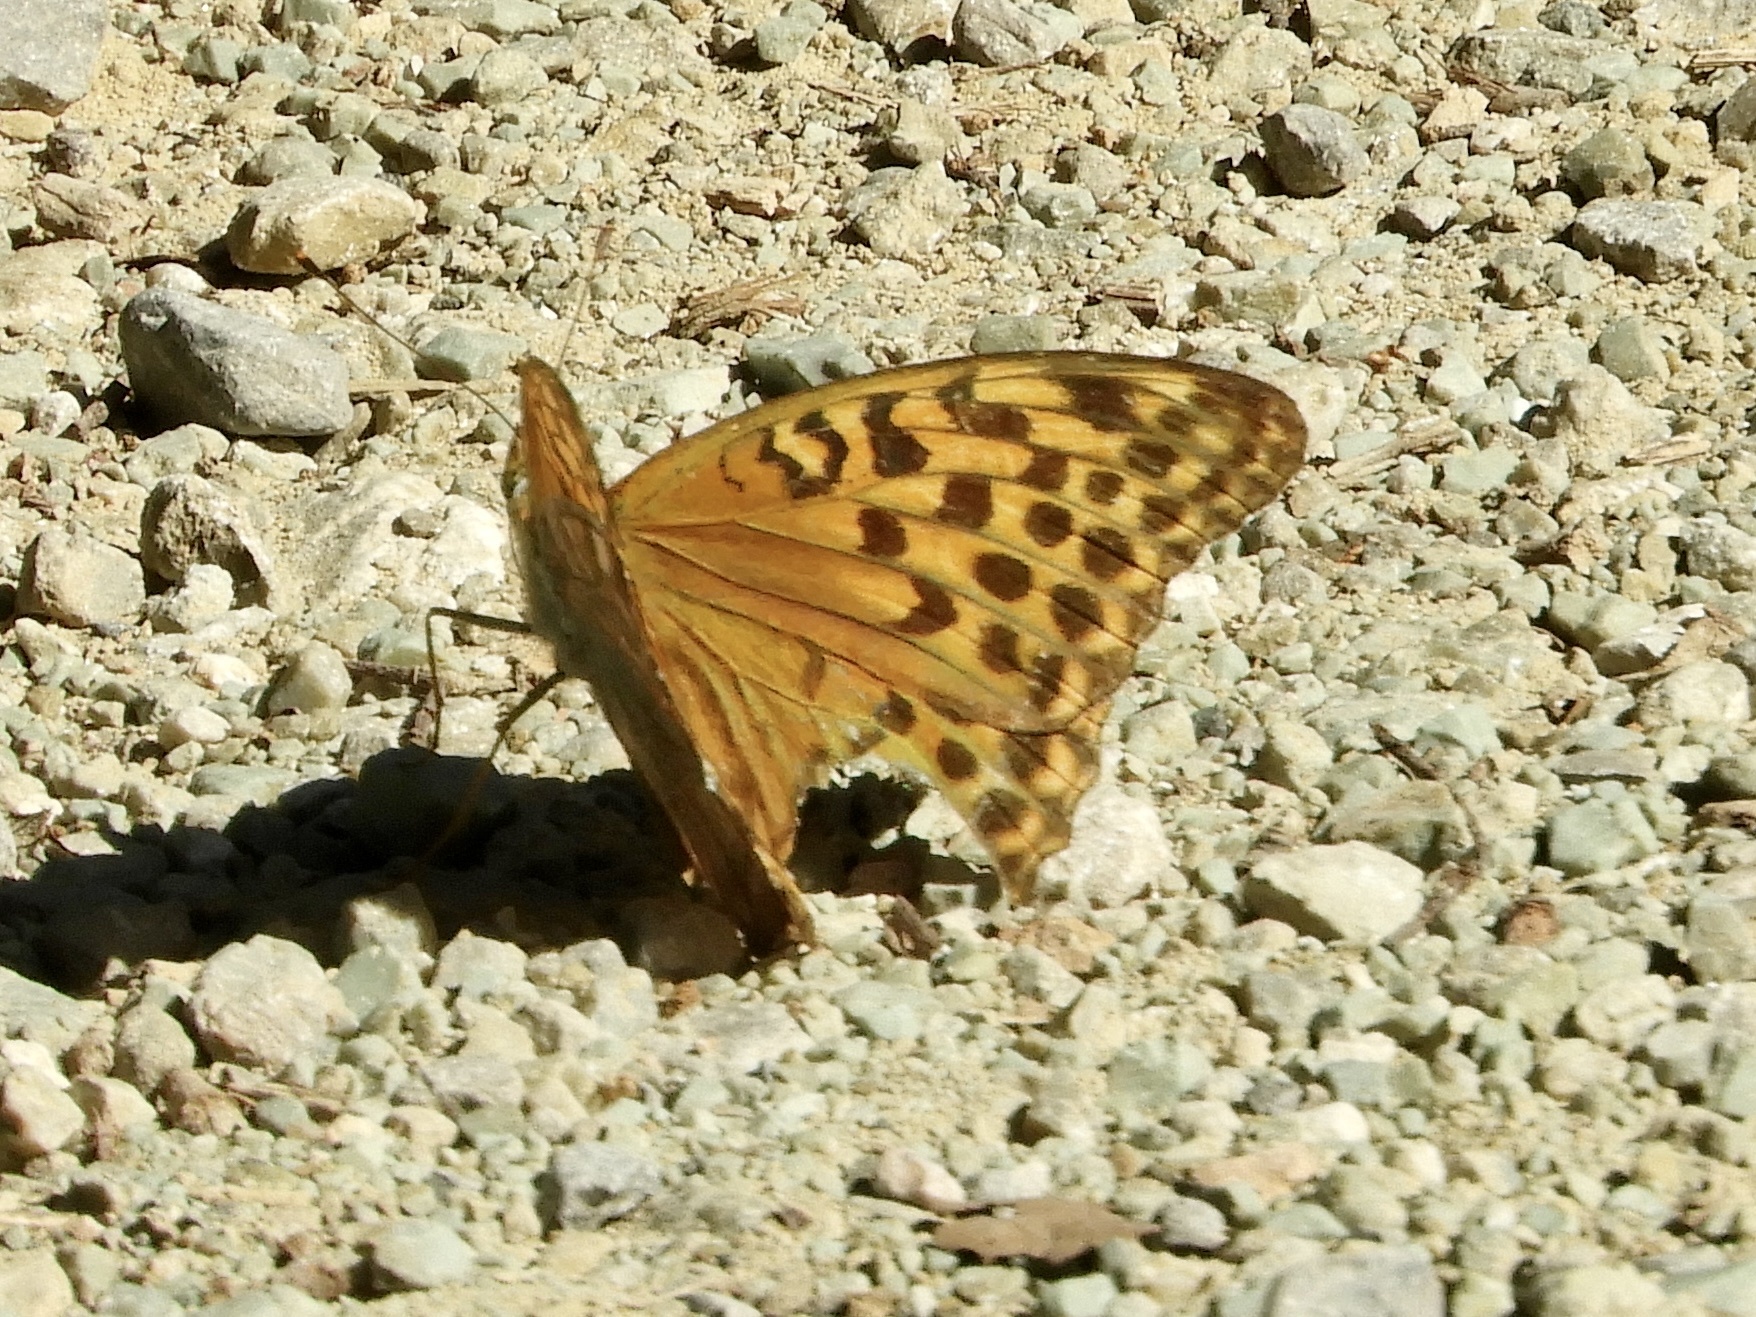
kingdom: Animalia
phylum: Arthropoda
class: Insecta
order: Lepidoptera
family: Nymphalidae
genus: Argynnis
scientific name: Argynnis paphia
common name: Silver-washed fritillary
